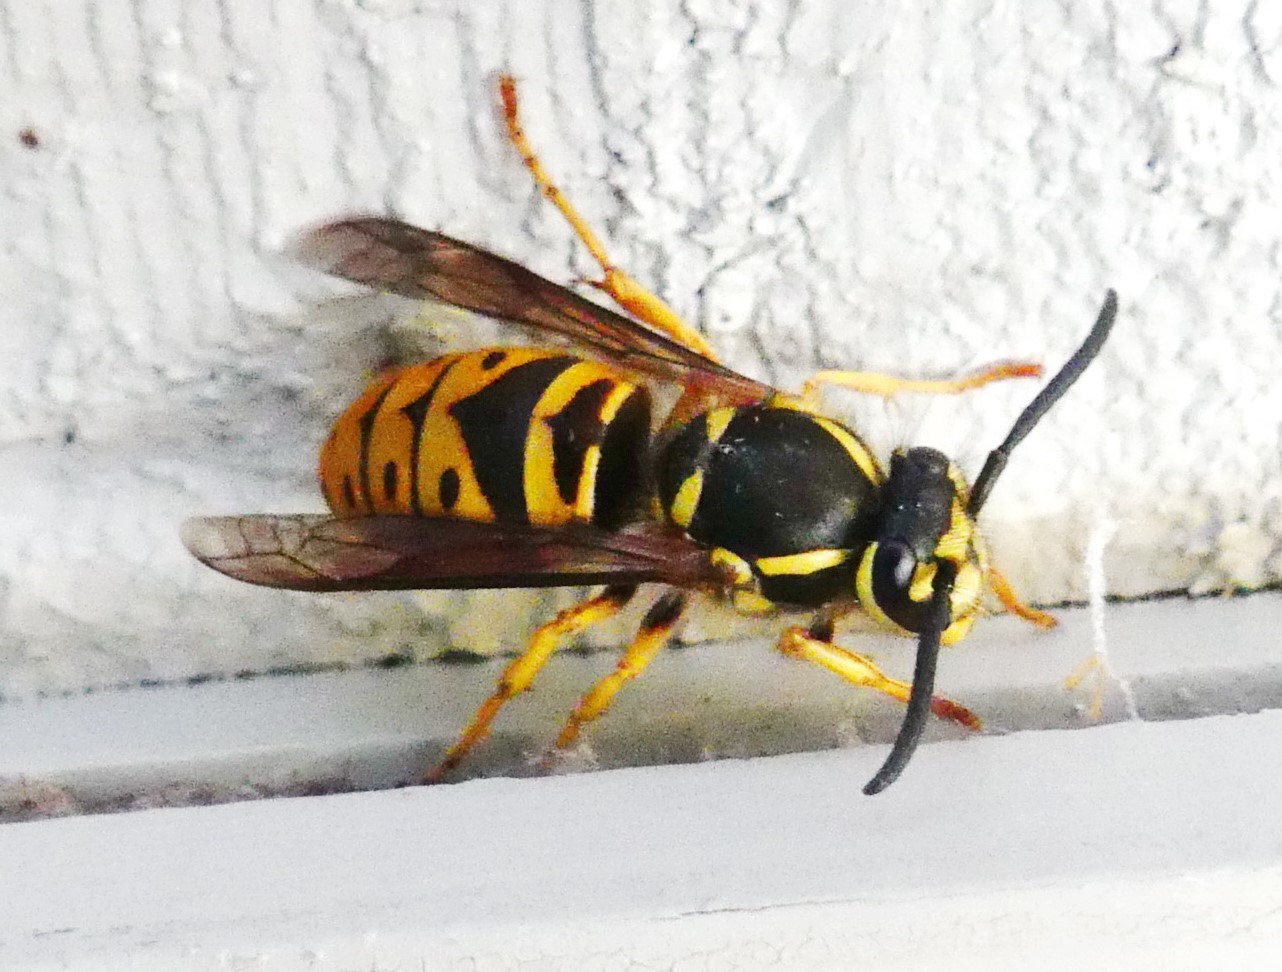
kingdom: Animalia
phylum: Arthropoda
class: Insecta
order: Hymenoptera
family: Vespidae
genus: Vespula
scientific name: Vespula maculifrons
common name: Eastern yellowjacket
